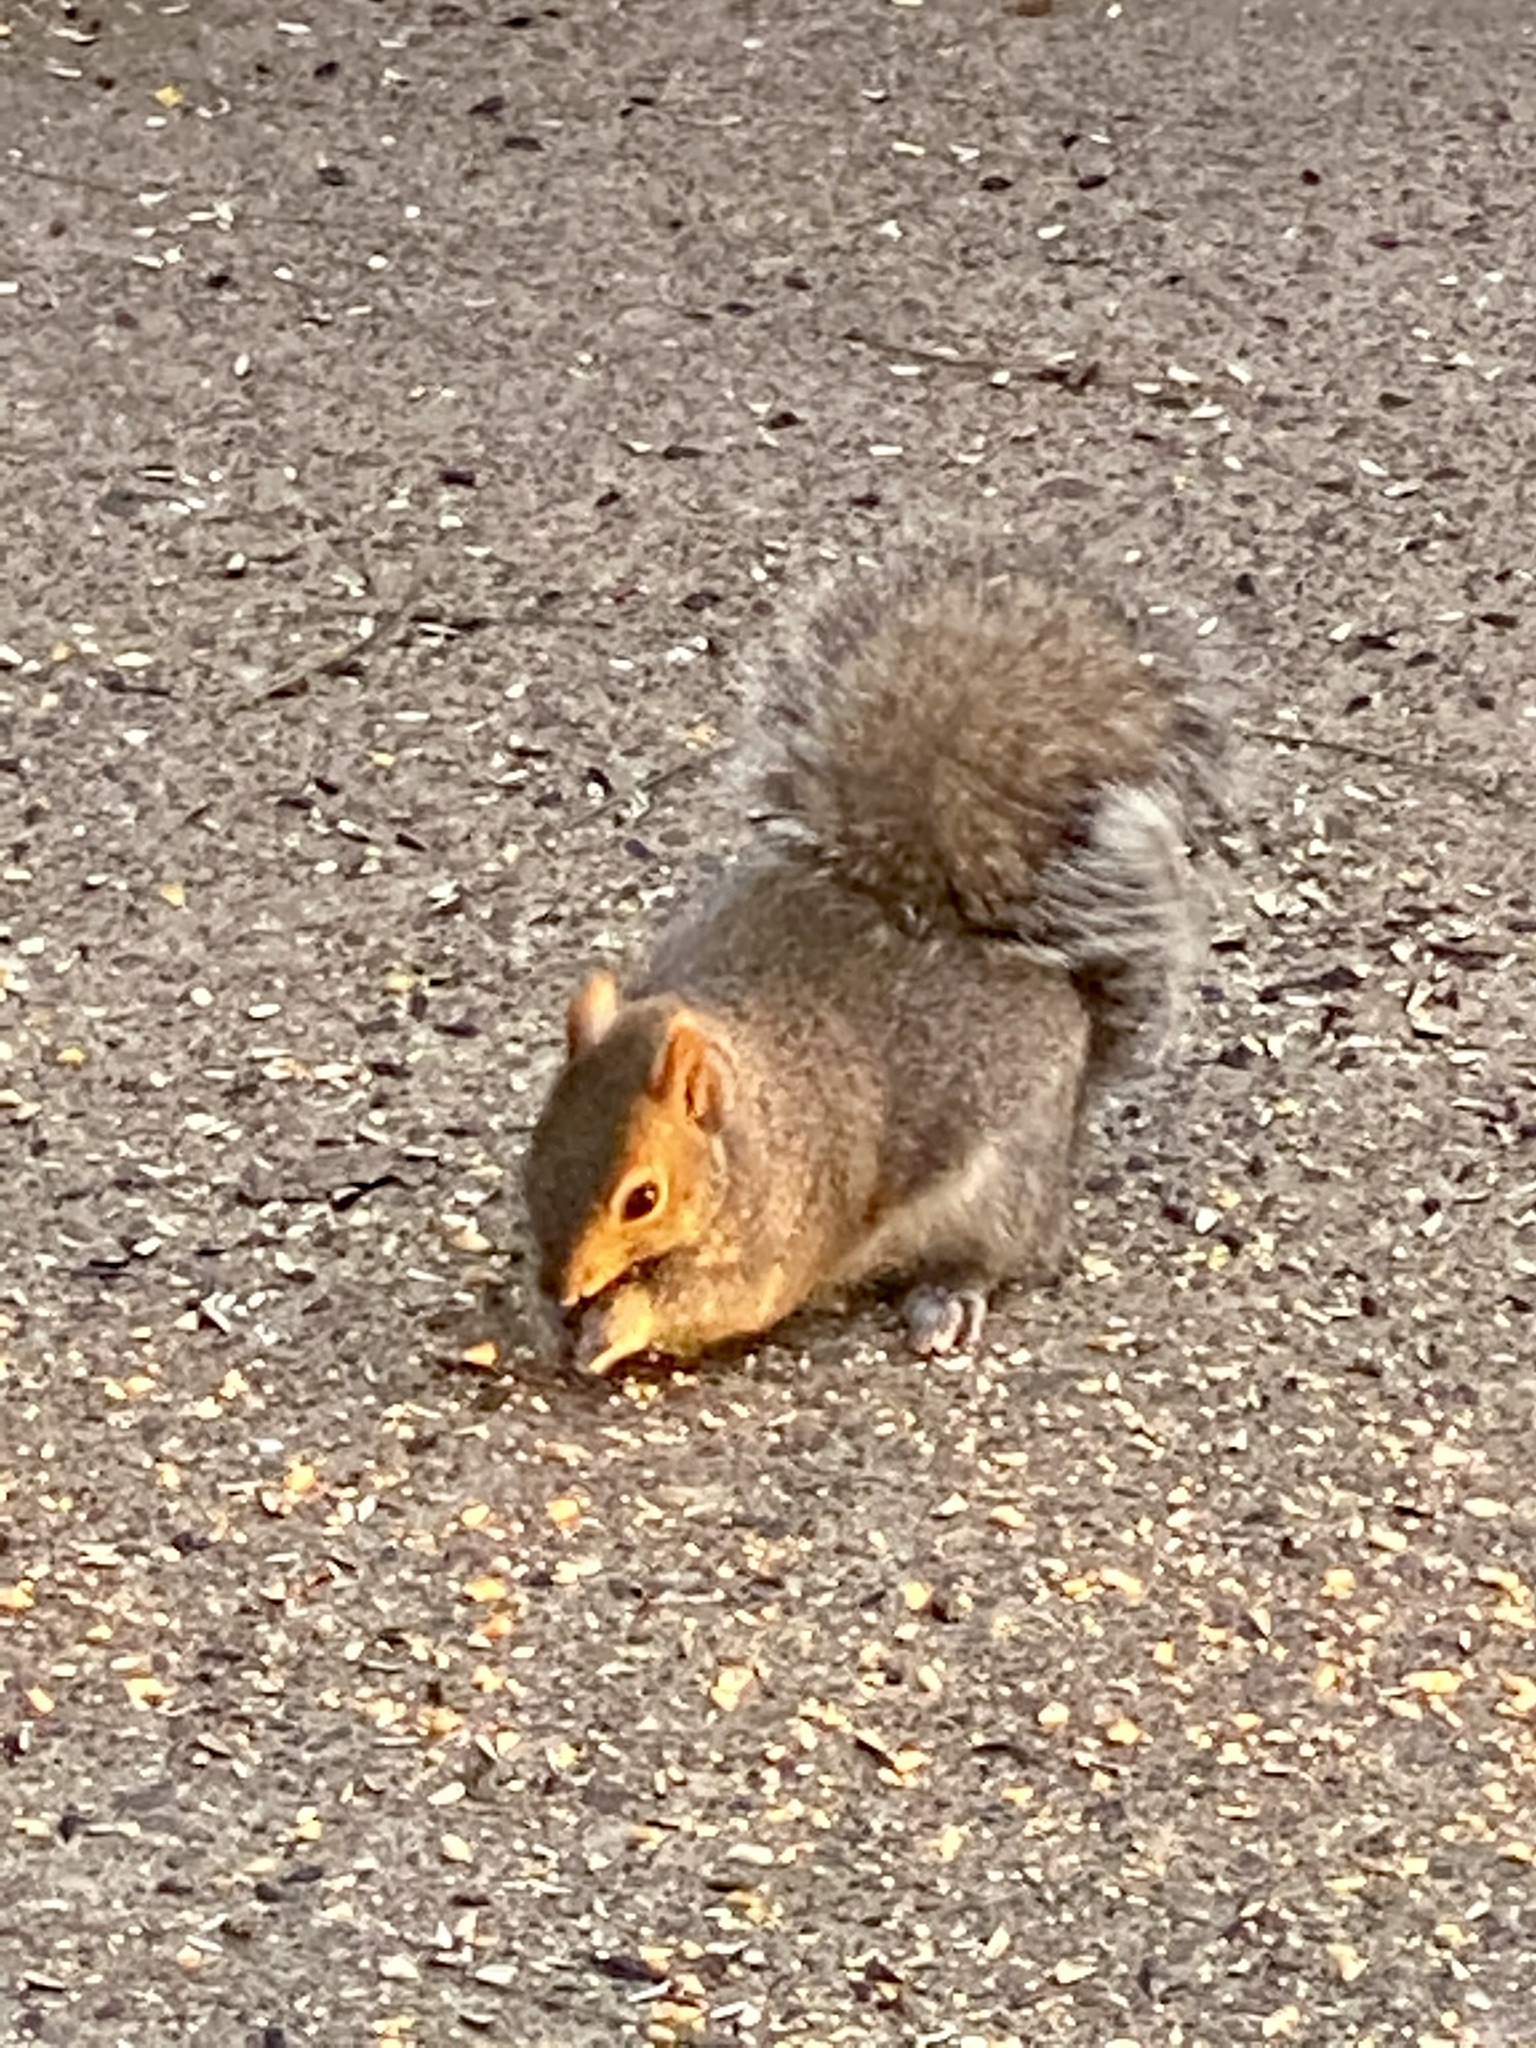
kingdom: Animalia
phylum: Chordata
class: Mammalia
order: Rodentia
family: Sciuridae
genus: Sciurus
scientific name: Sciurus carolinensis
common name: Eastern gray squirrel
